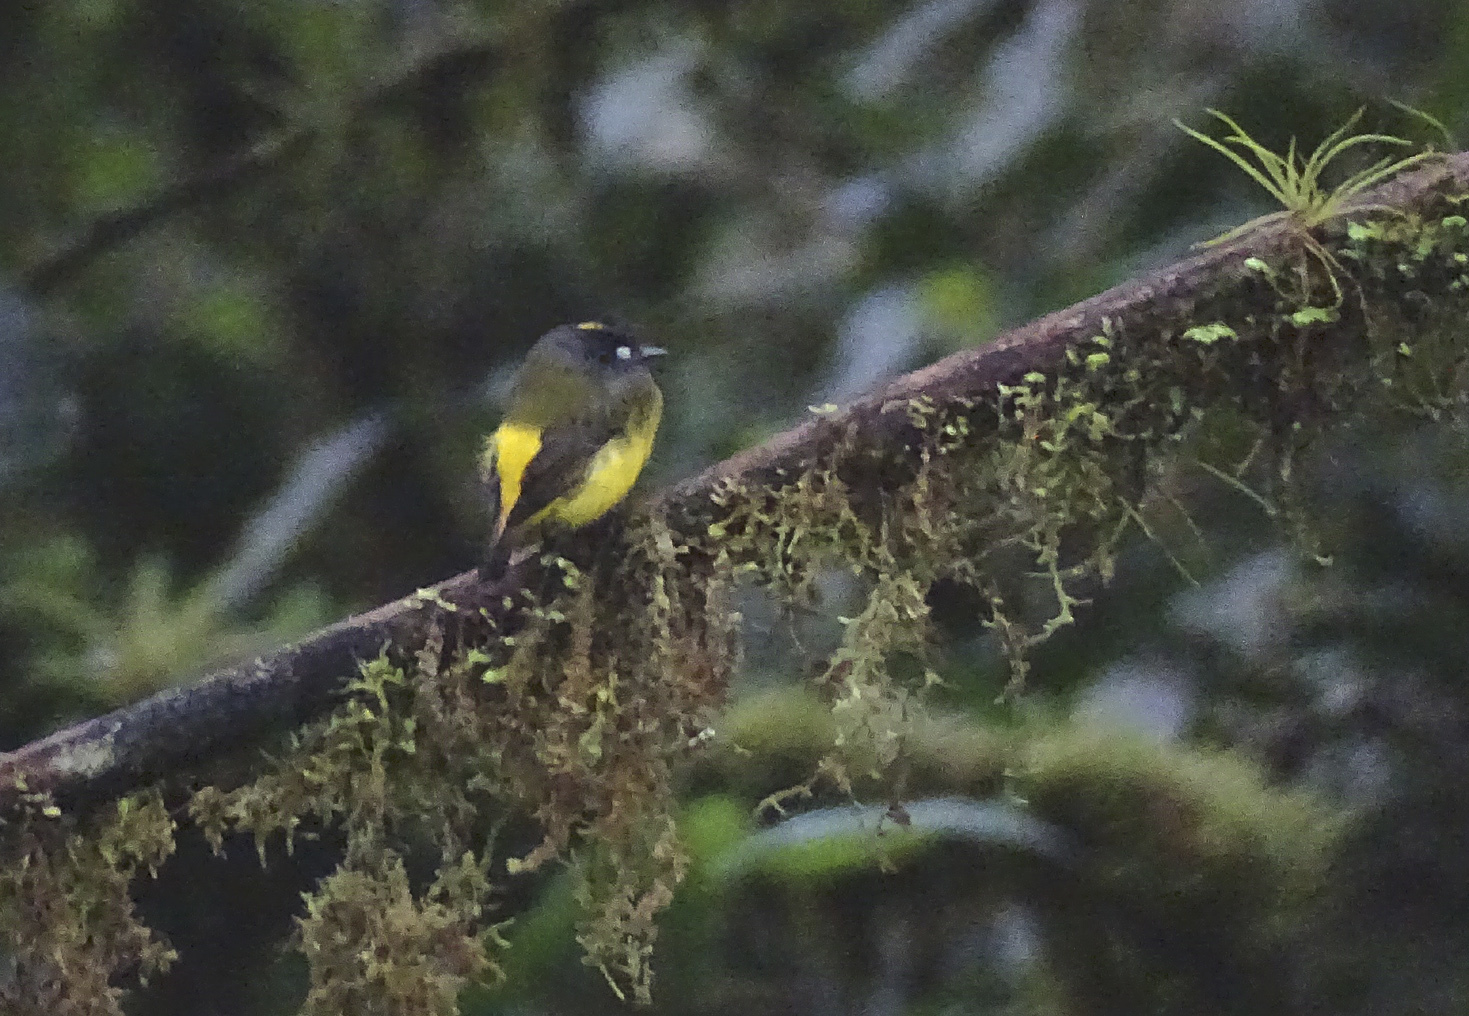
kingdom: Animalia
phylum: Chordata
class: Aves
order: Passeriformes
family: Tyrannidae
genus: Myiotriccus
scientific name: Myiotriccus ornatus
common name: Ornate flycatcher
